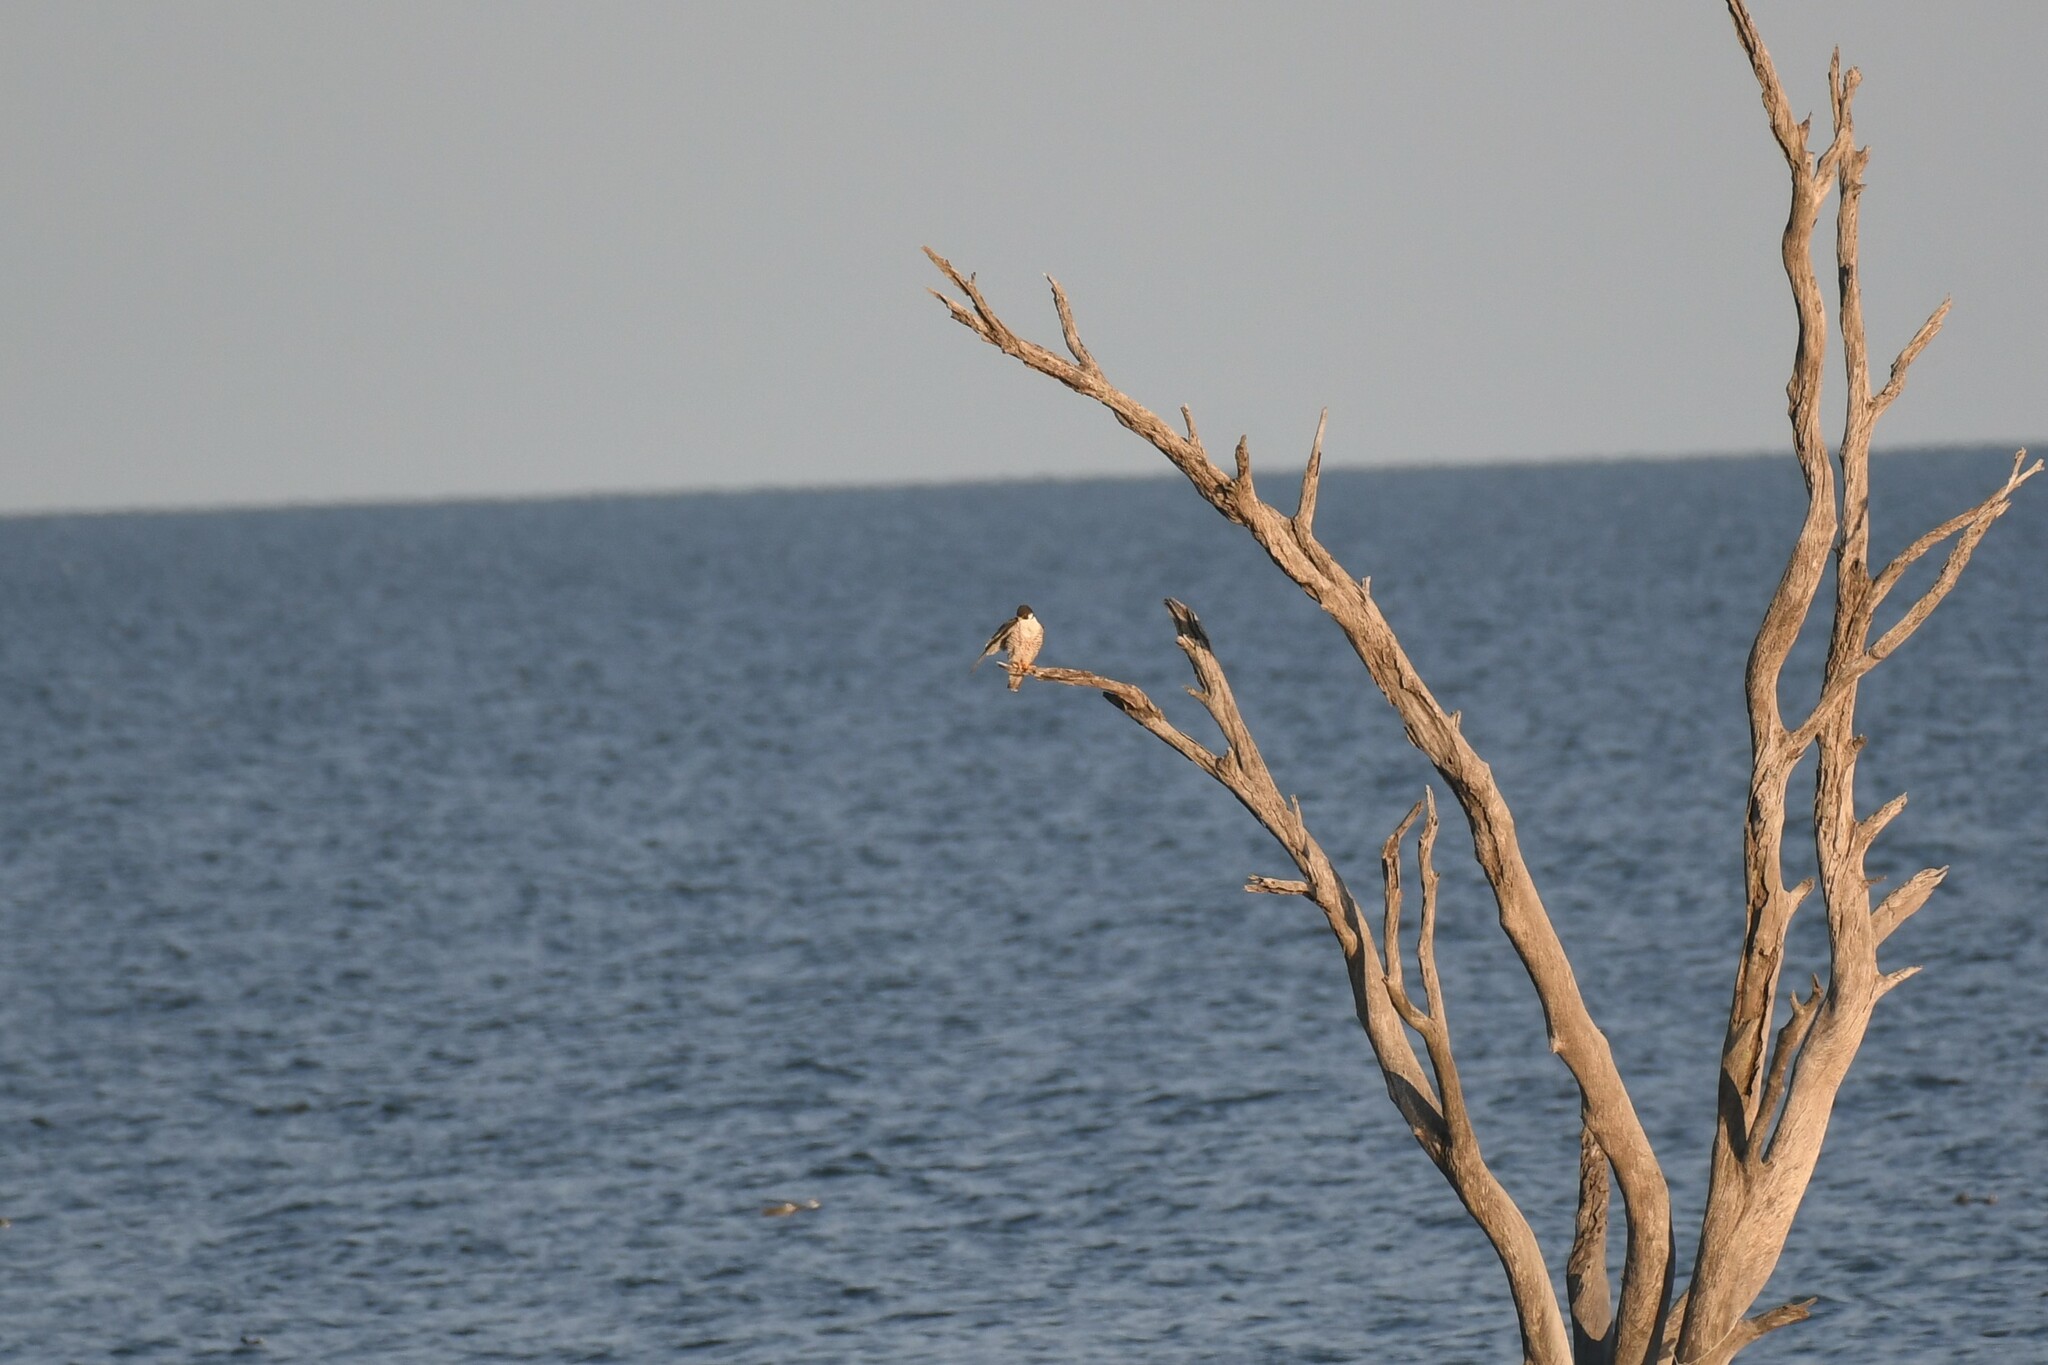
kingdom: Animalia
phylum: Chordata
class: Aves
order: Falconiformes
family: Falconidae
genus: Falco
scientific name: Falco peregrinus
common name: Peregrine falcon
